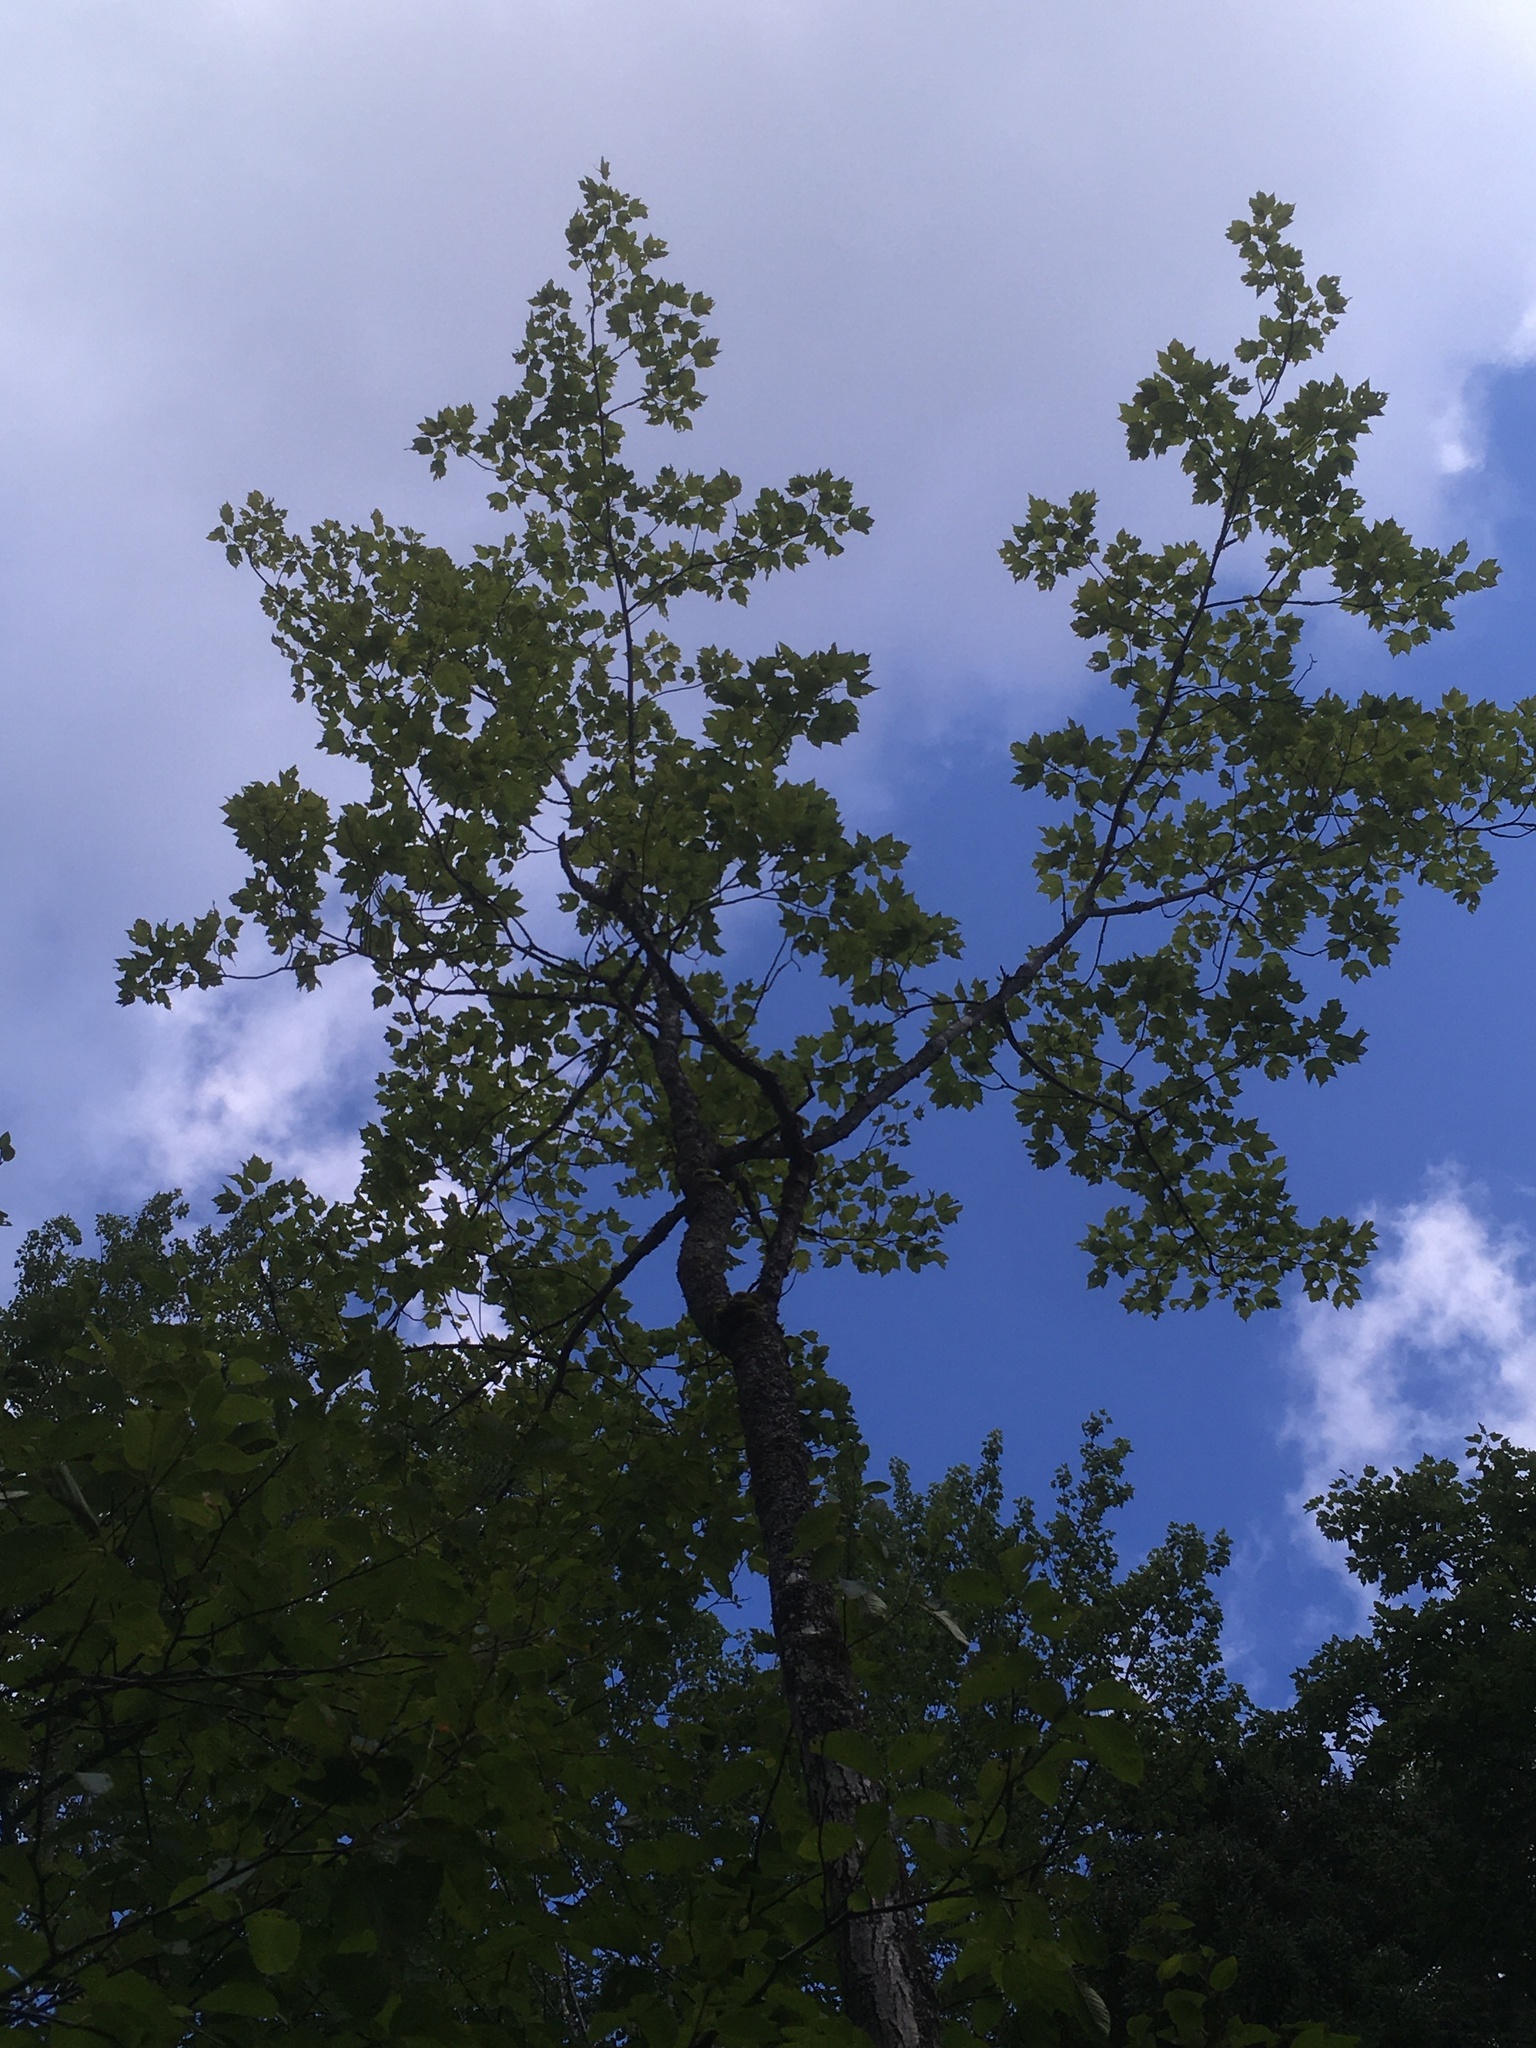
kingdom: Plantae
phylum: Tracheophyta
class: Magnoliopsida
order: Sapindales
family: Sapindaceae
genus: Acer
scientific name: Acer rubrum
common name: Red maple
